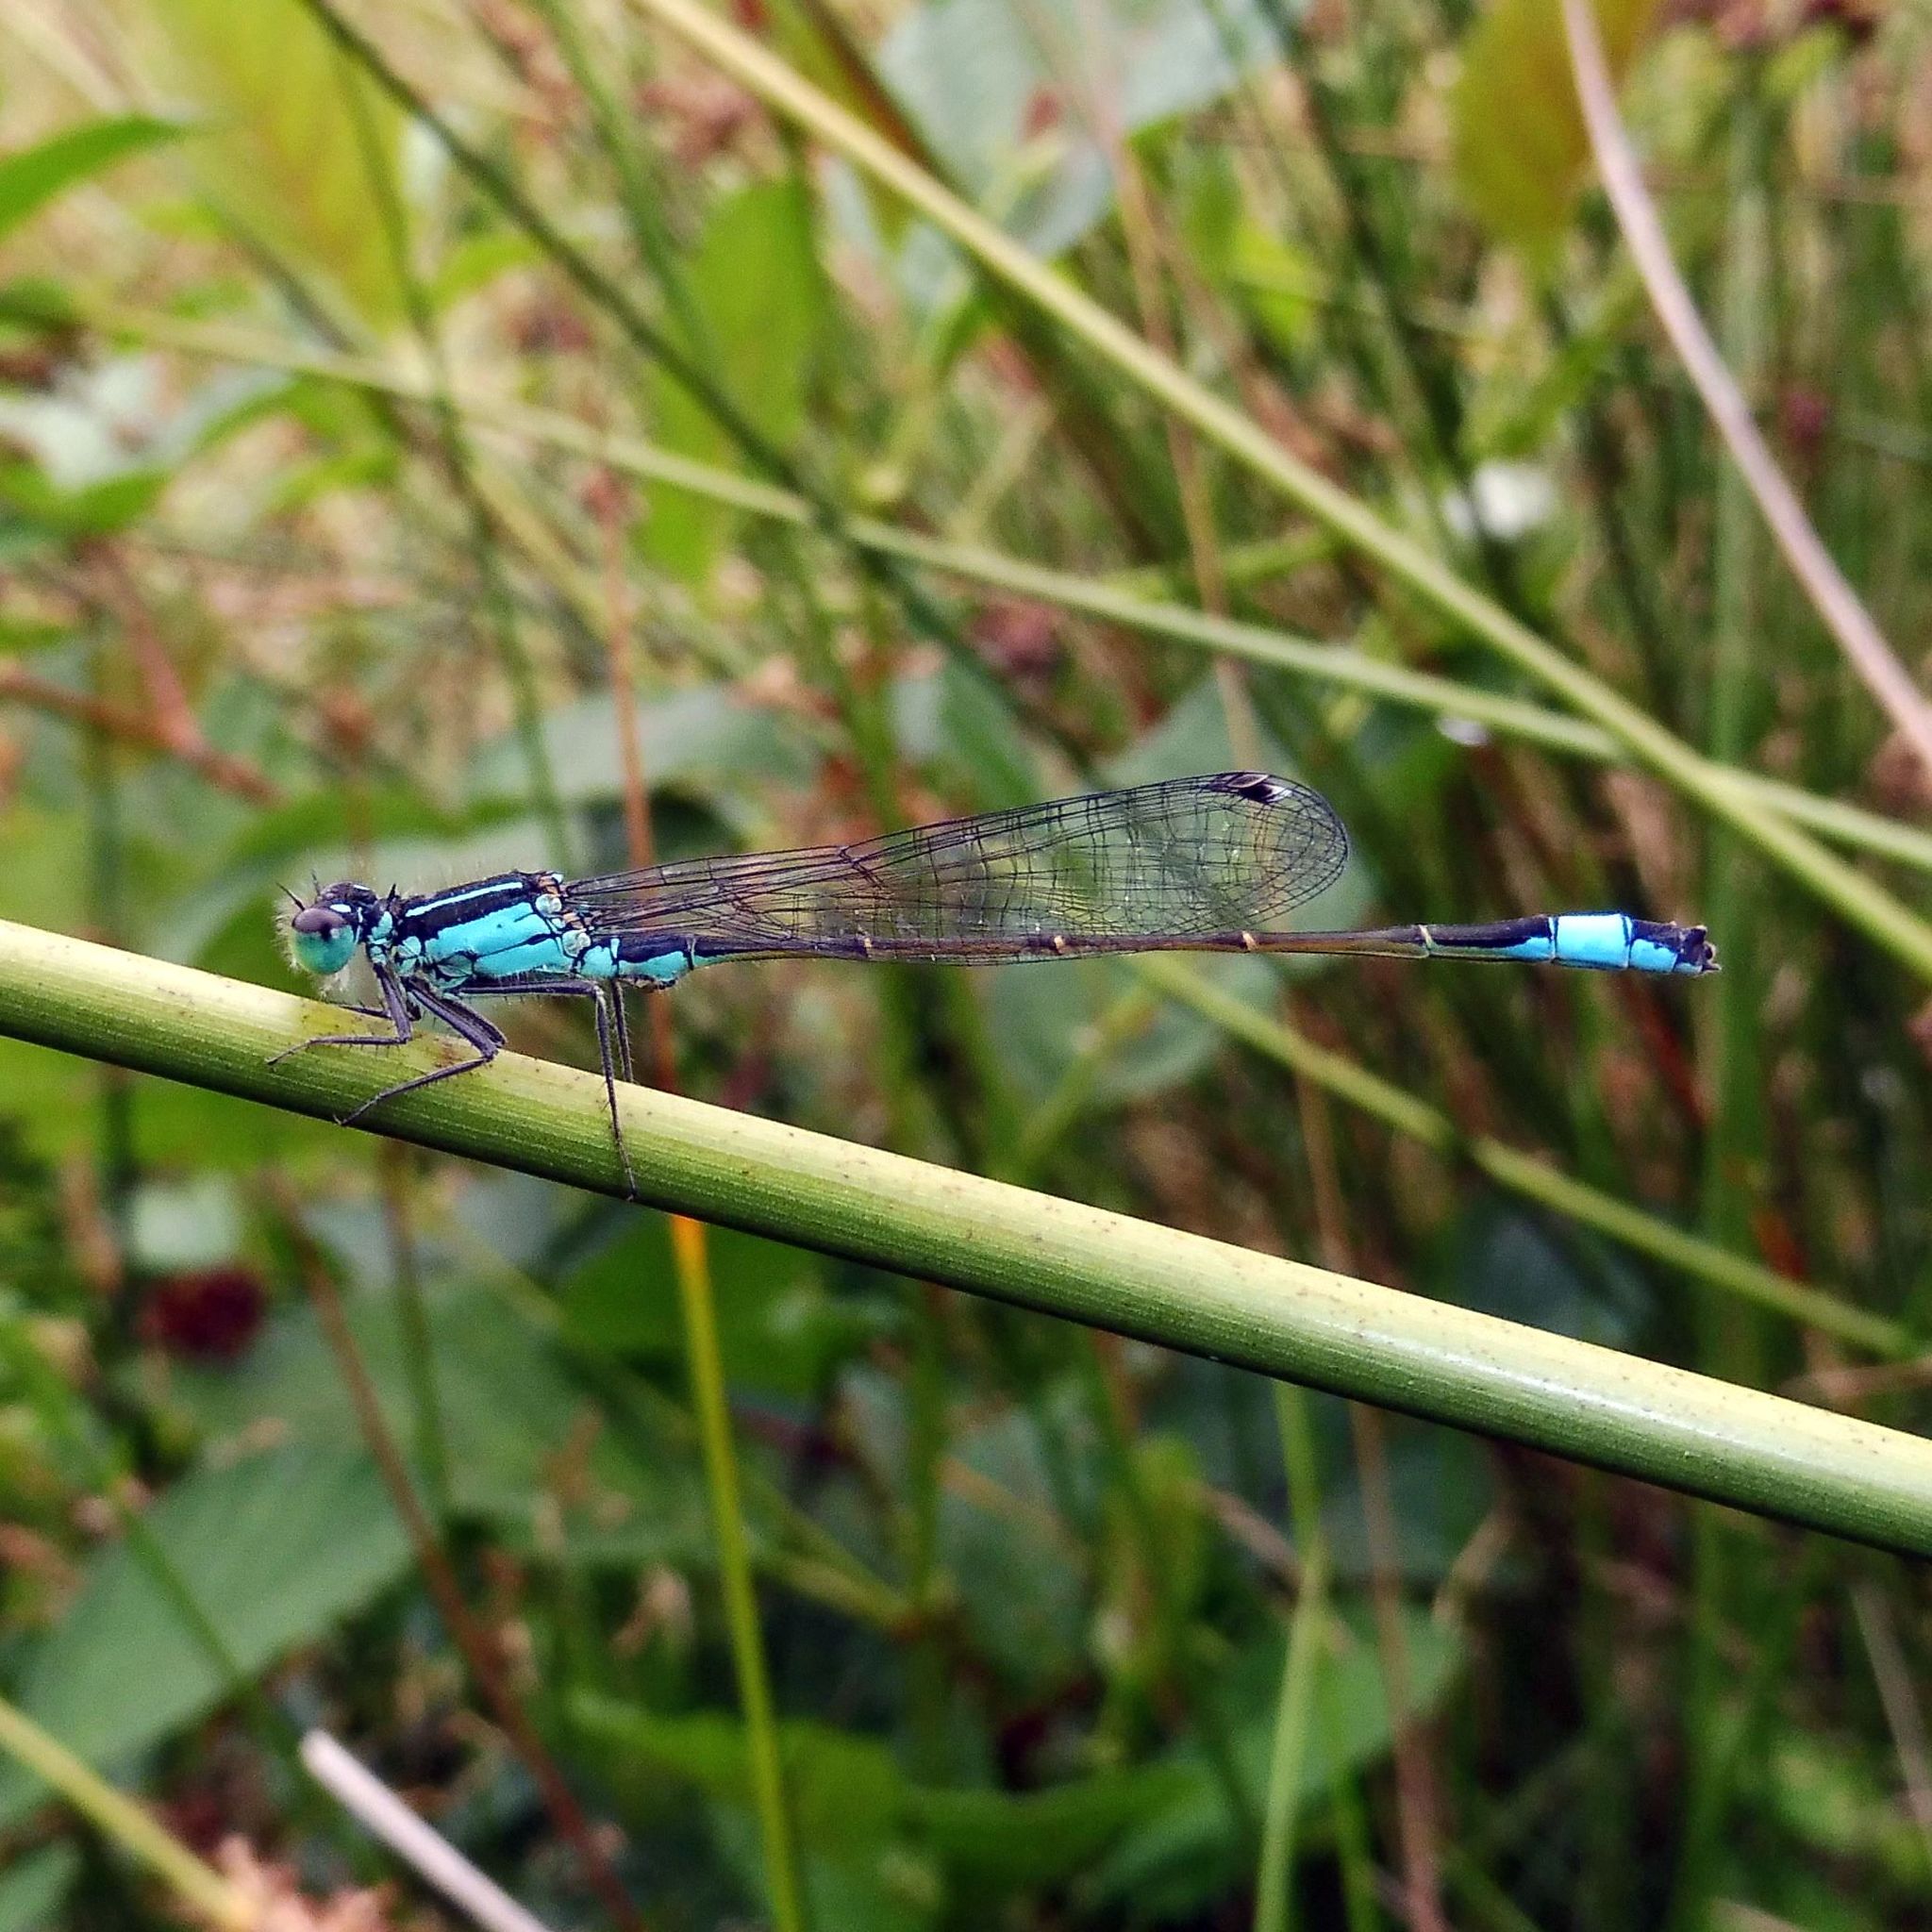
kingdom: Animalia
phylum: Arthropoda
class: Insecta
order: Odonata
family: Coenagrionidae
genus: Ischnura
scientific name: Ischnura elegans
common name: Blue-tailed damselfly
